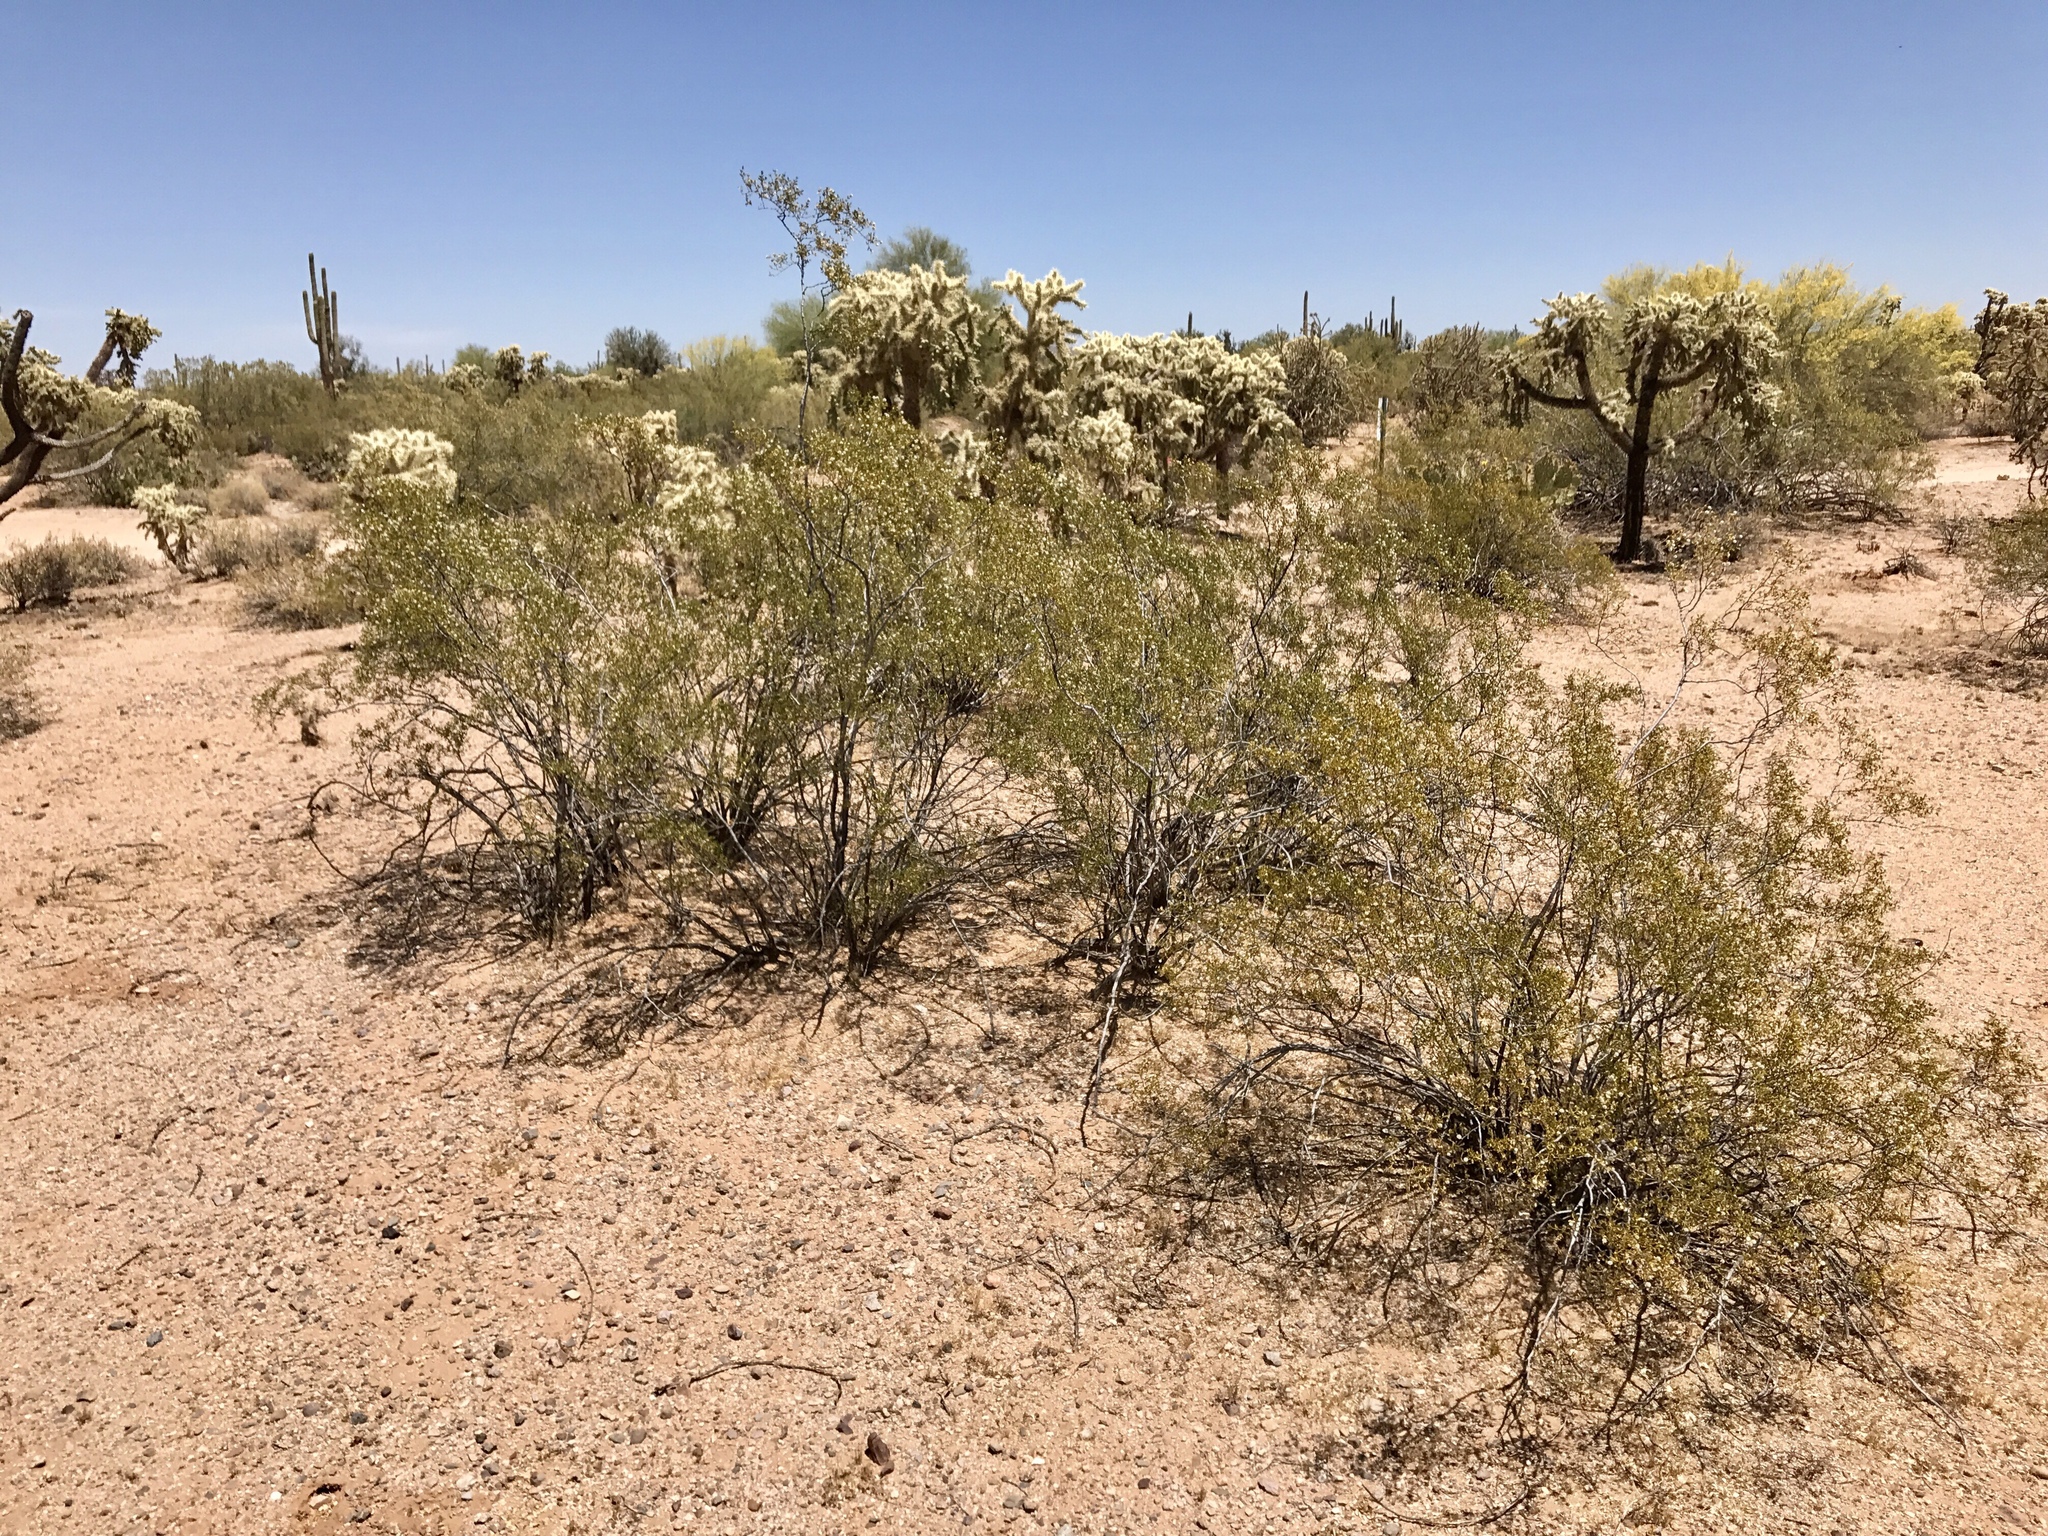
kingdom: Plantae
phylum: Tracheophyta
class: Magnoliopsida
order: Zygophyllales
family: Zygophyllaceae
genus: Larrea
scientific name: Larrea tridentata
